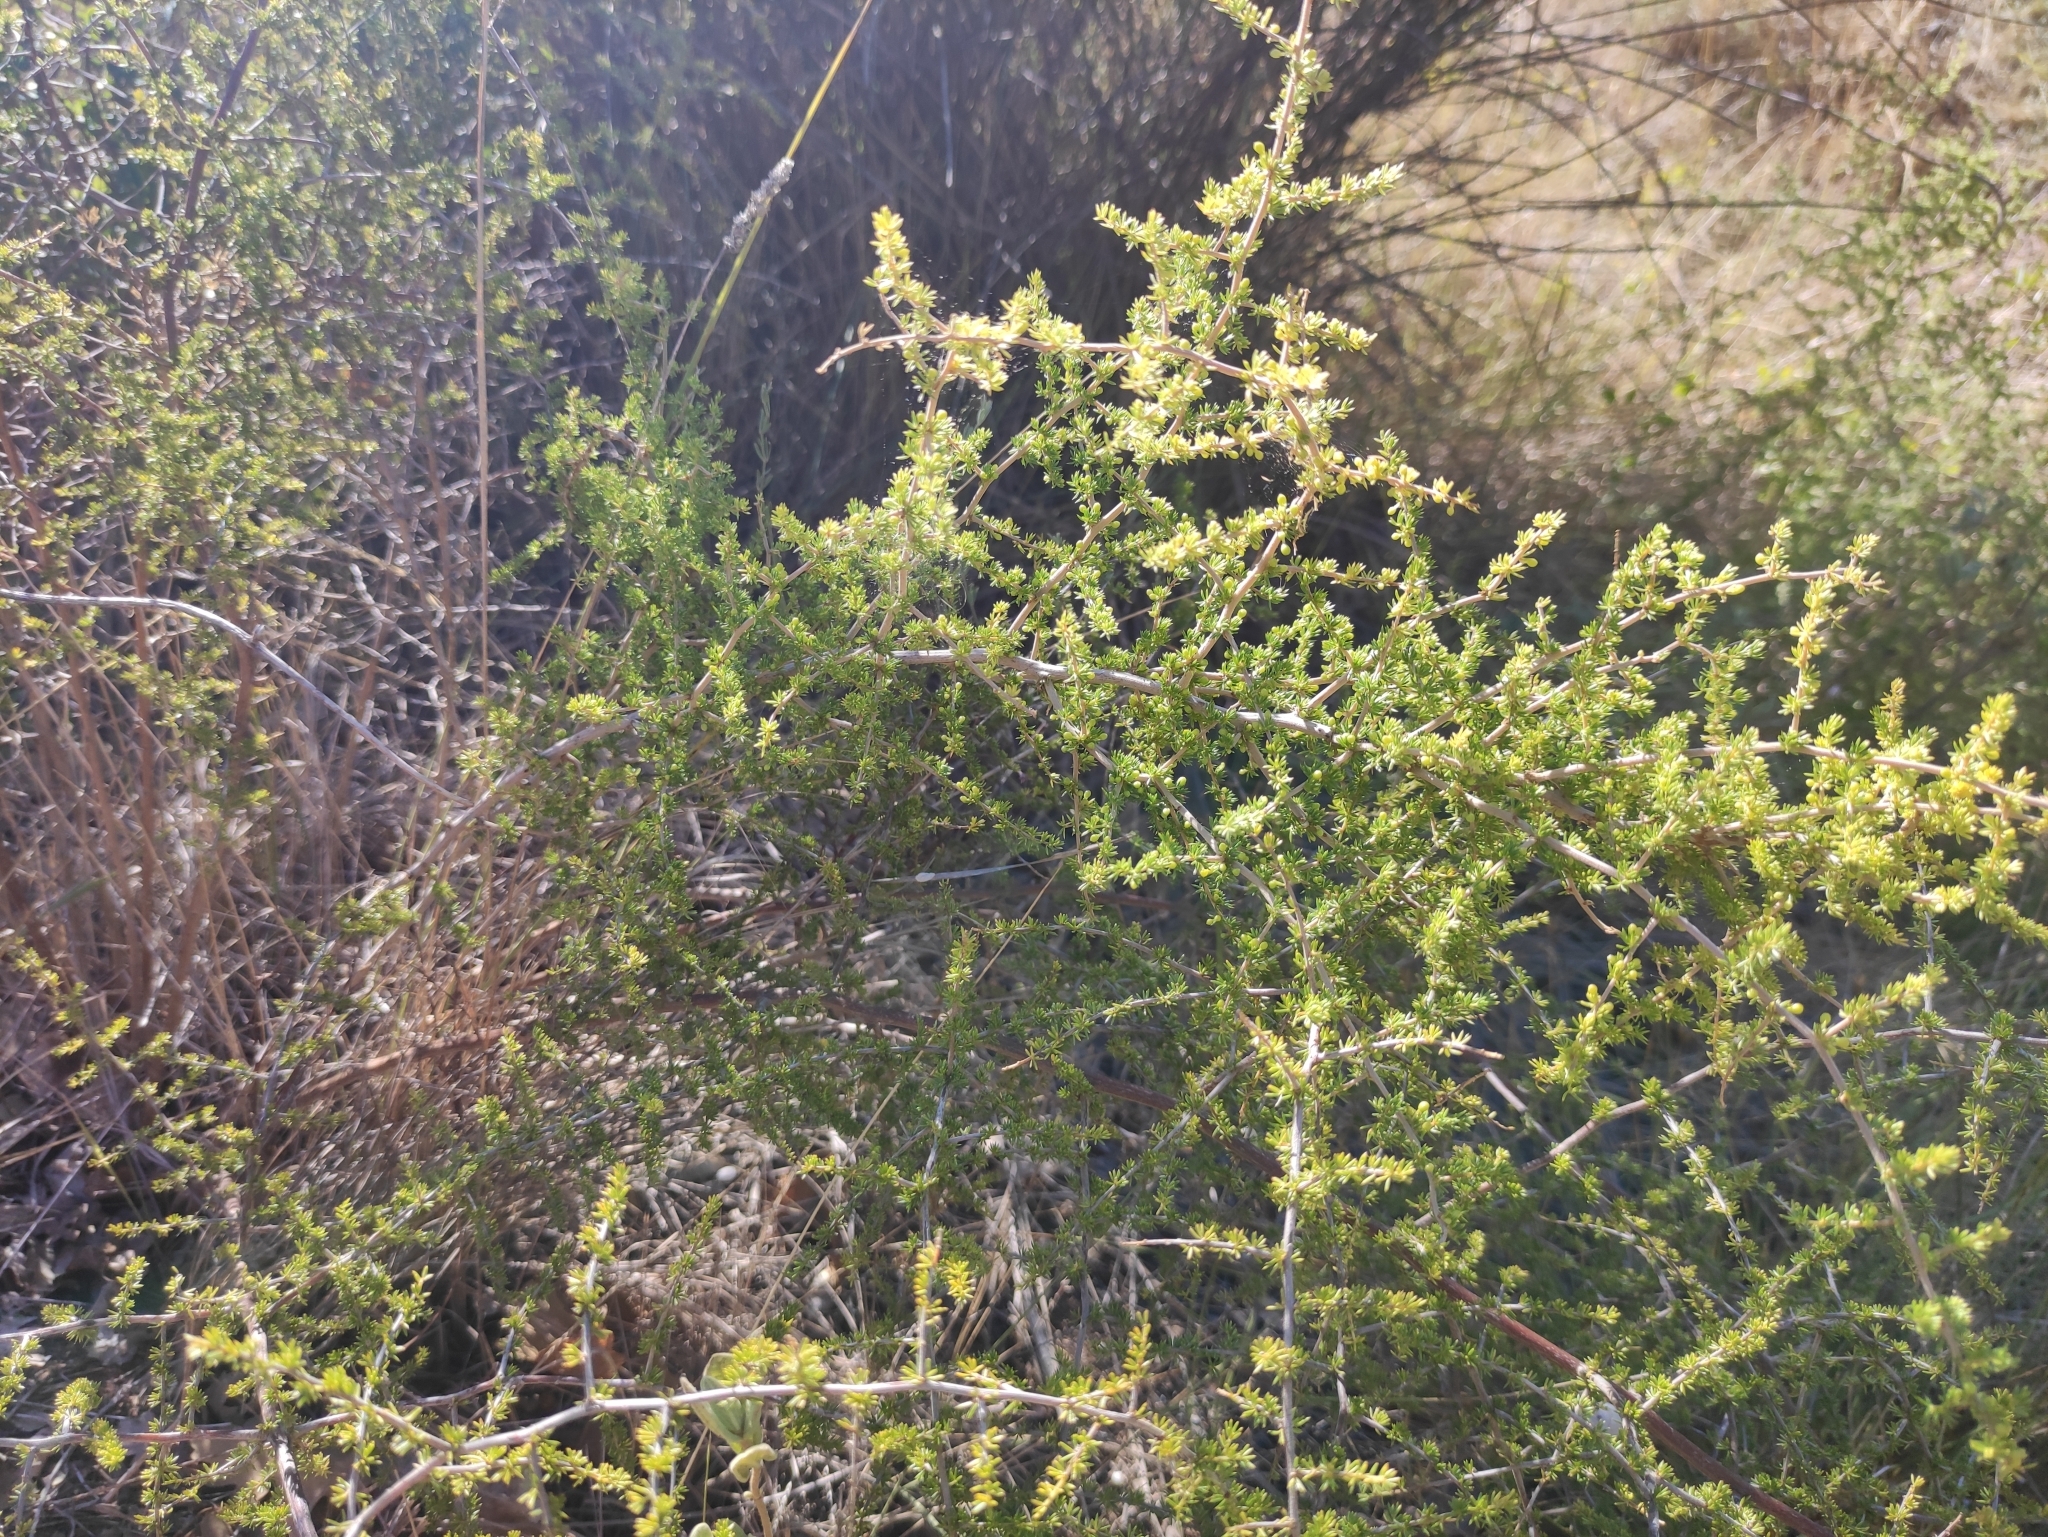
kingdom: Plantae
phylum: Tracheophyta
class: Liliopsida
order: Asparagales
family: Asparagaceae
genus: Asparagus
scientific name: Asparagus acutifolius
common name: Wild asparagus
